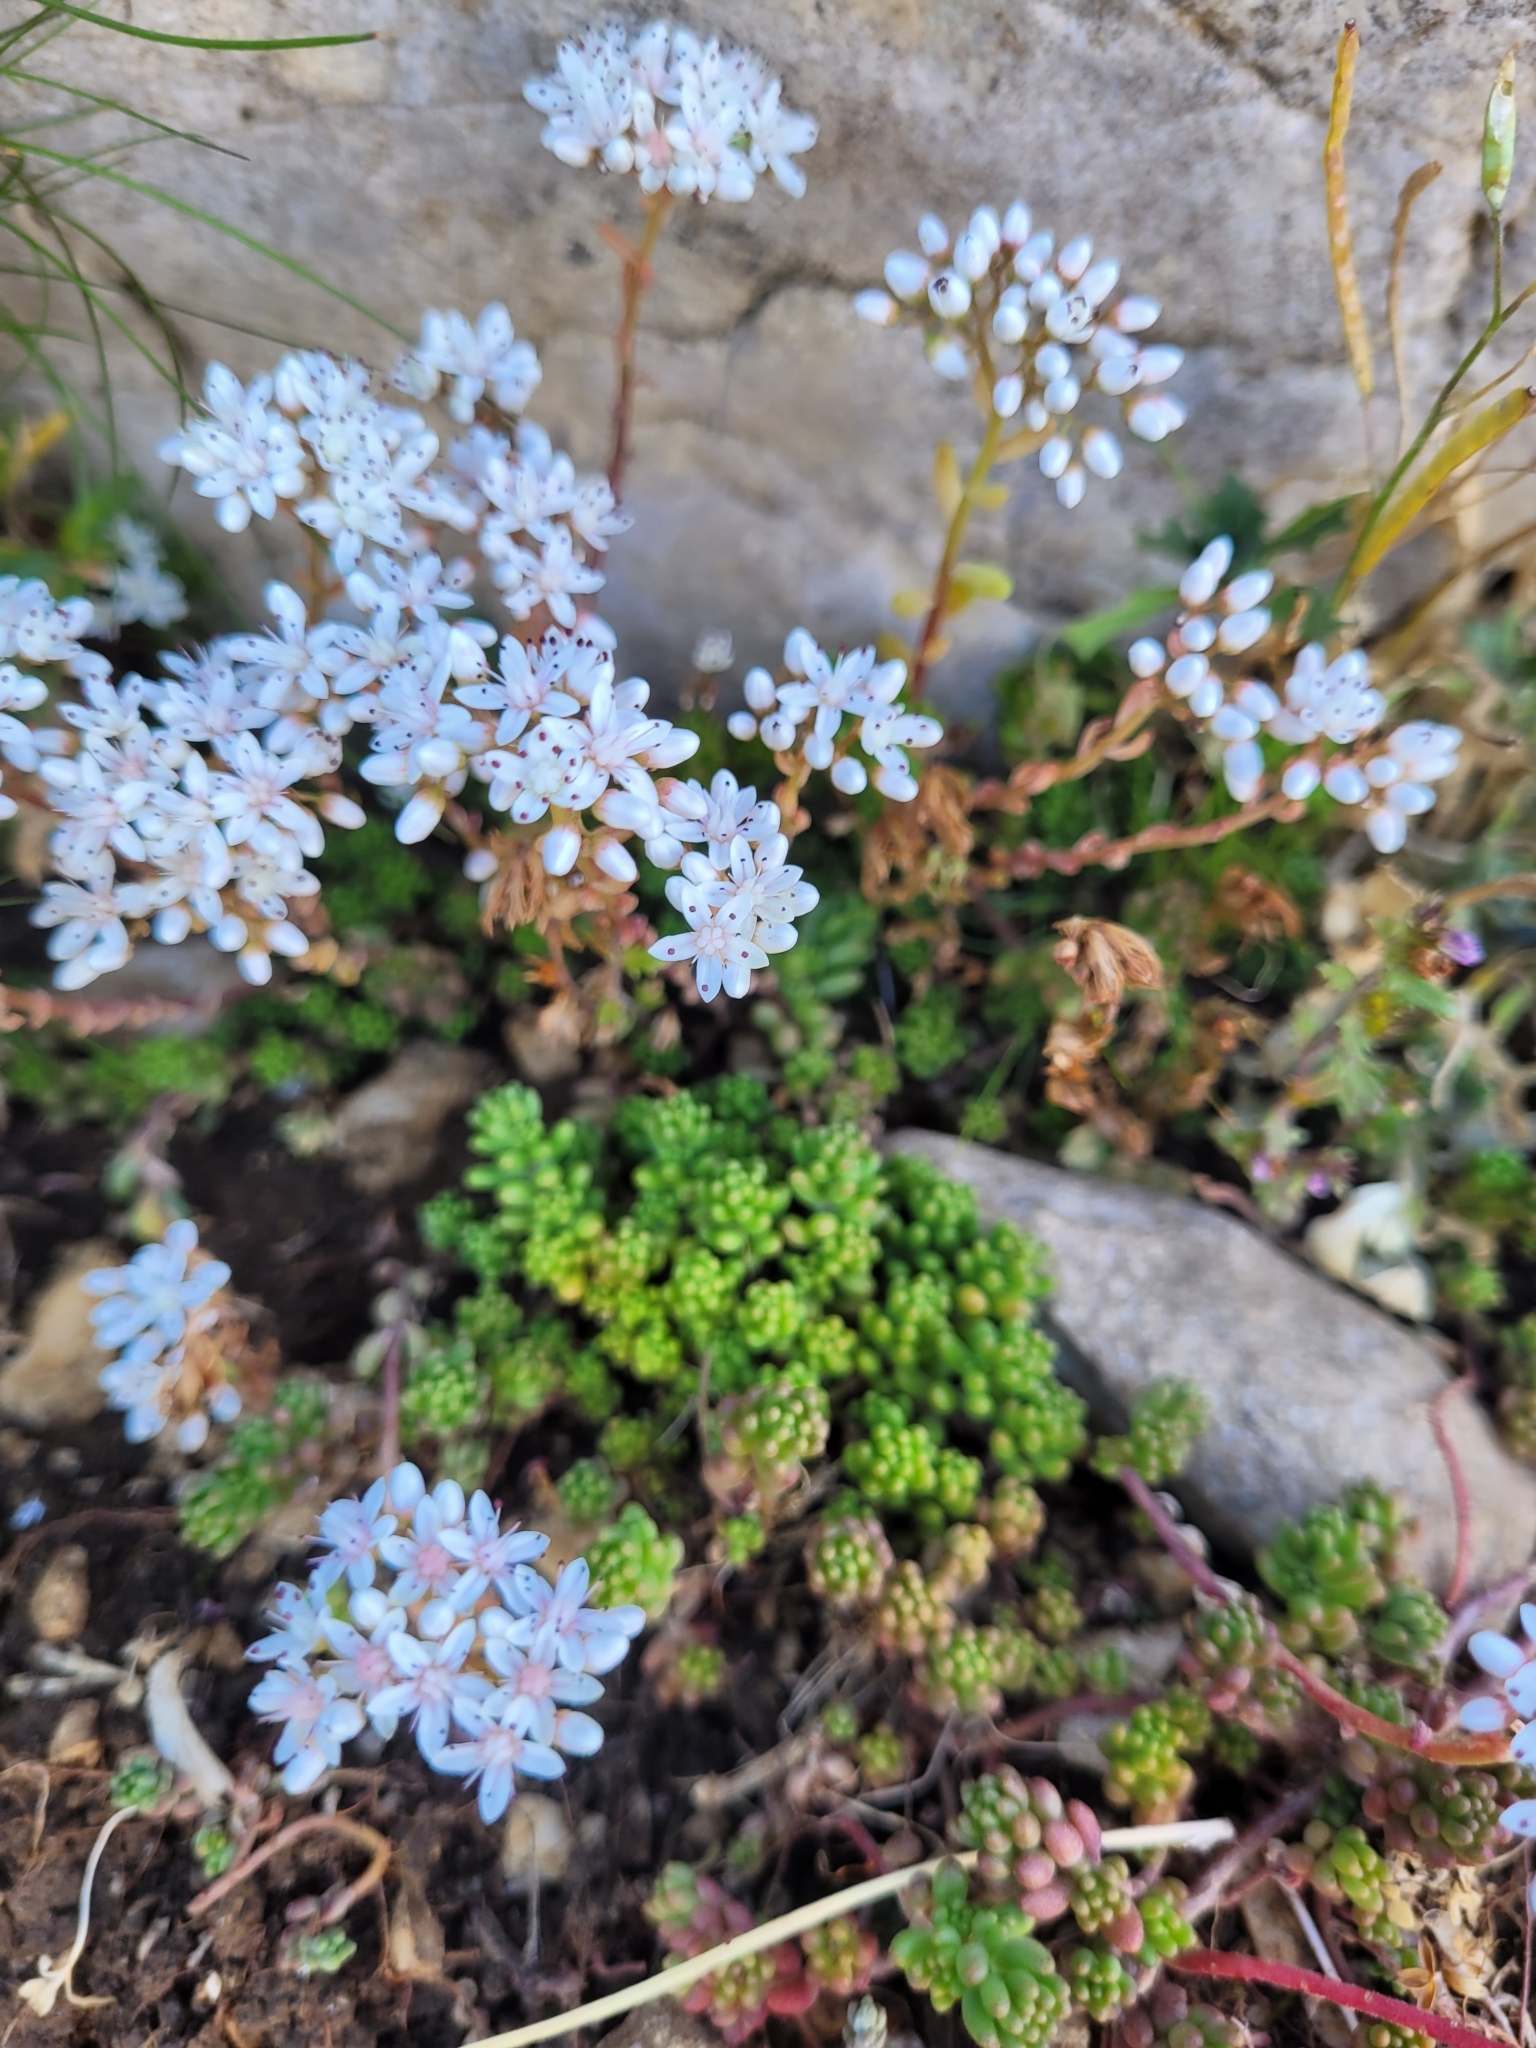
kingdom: Plantae
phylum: Tracheophyta
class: Magnoliopsida
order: Saxifragales
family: Crassulaceae
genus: Sedum
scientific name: Sedum album
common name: White stonecrop
